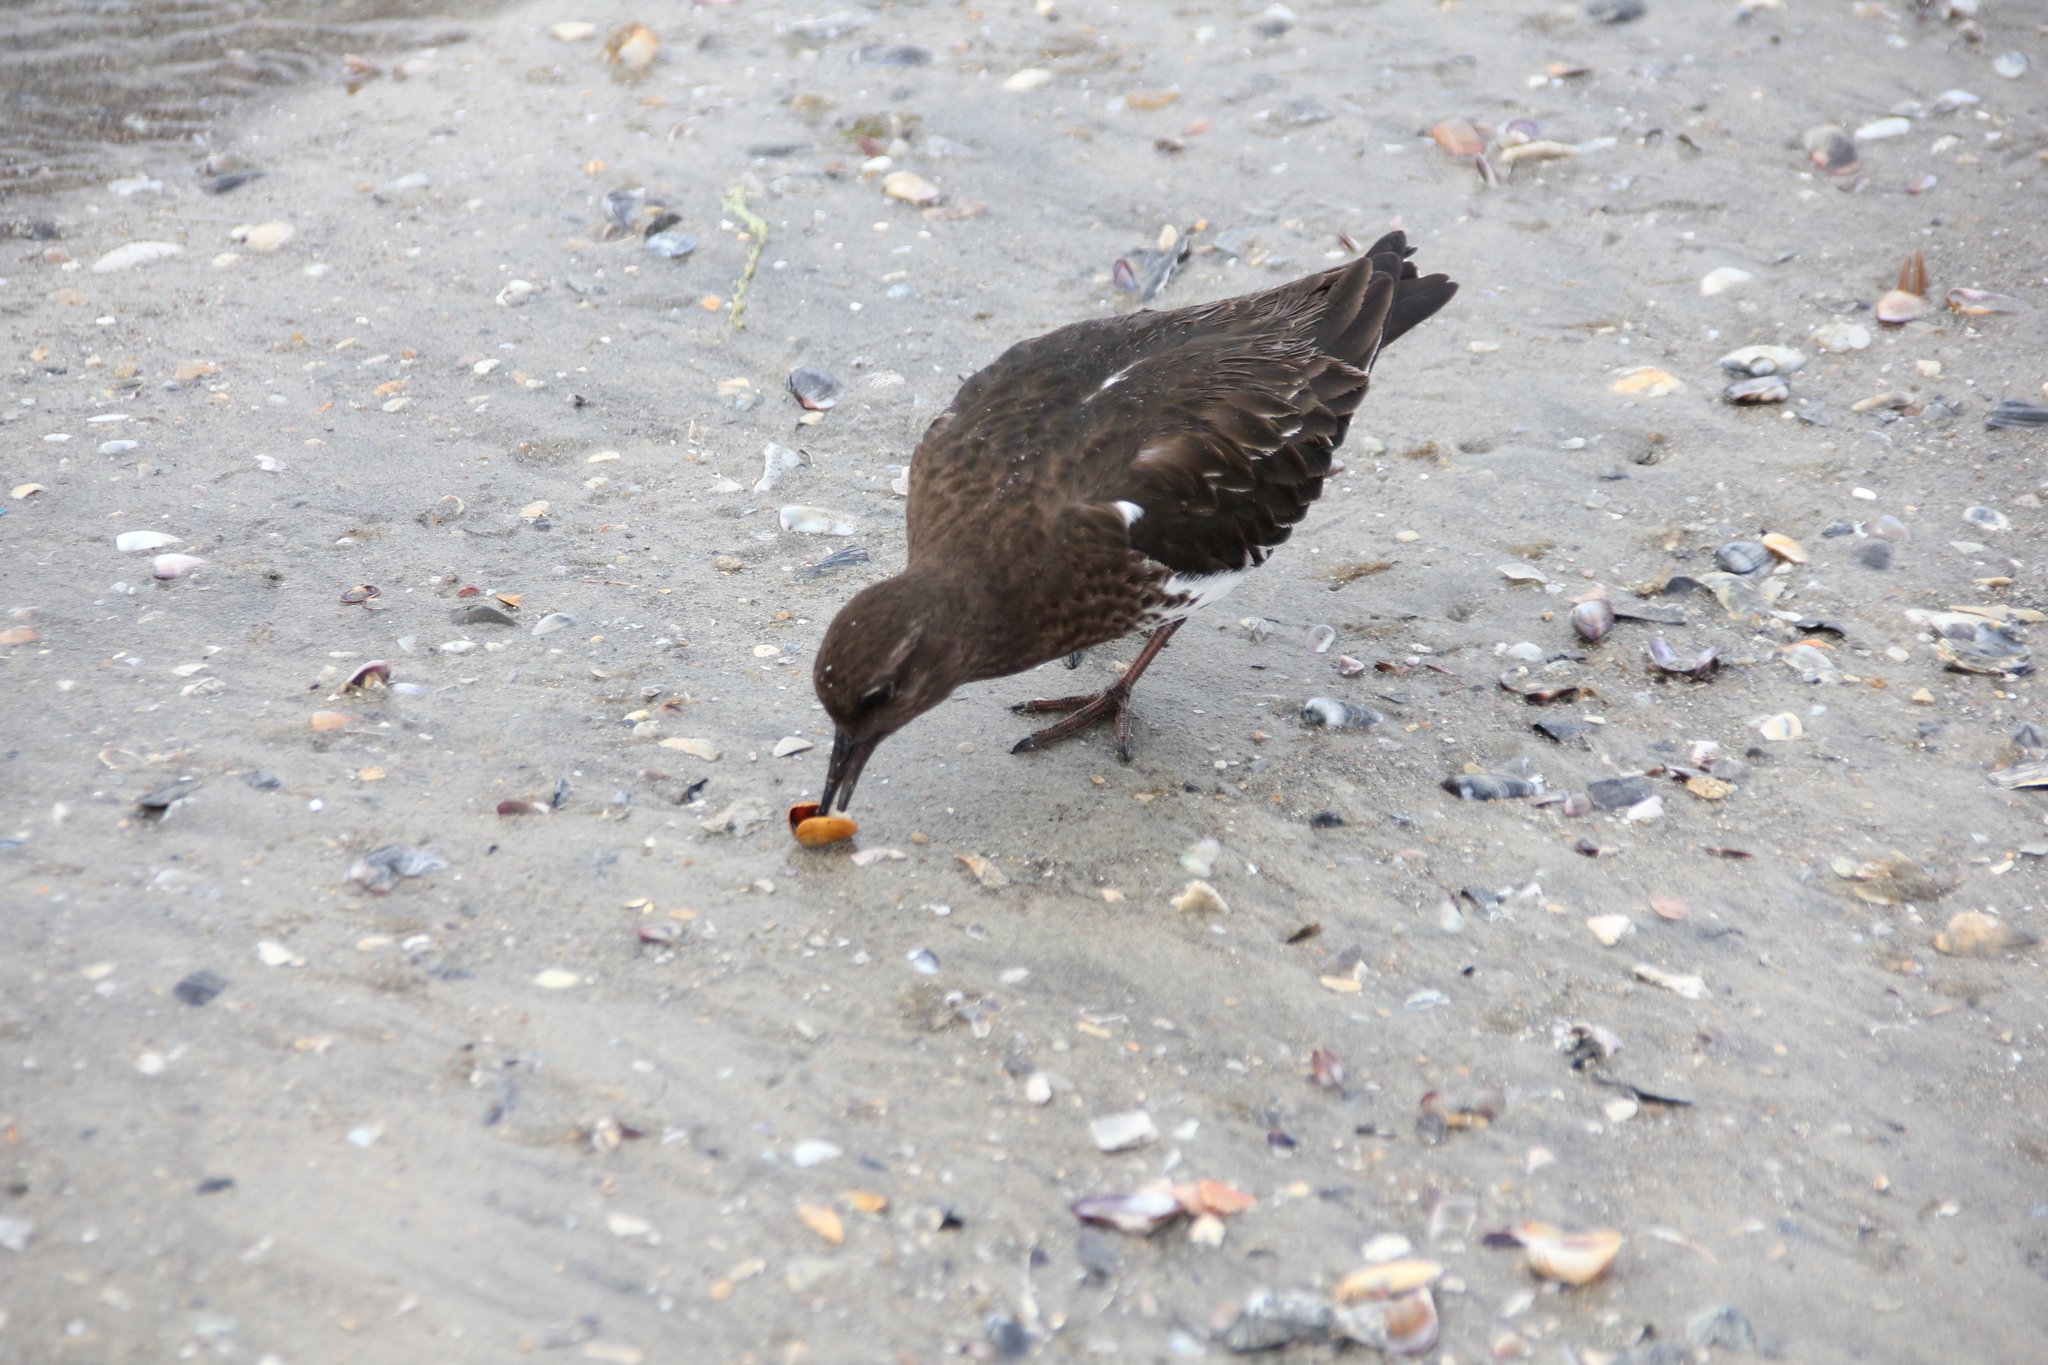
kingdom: Animalia
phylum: Chordata
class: Aves
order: Charadriiformes
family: Scolopacidae
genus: Arenaria
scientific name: Arenaria melanocephala
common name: Black turnstone
